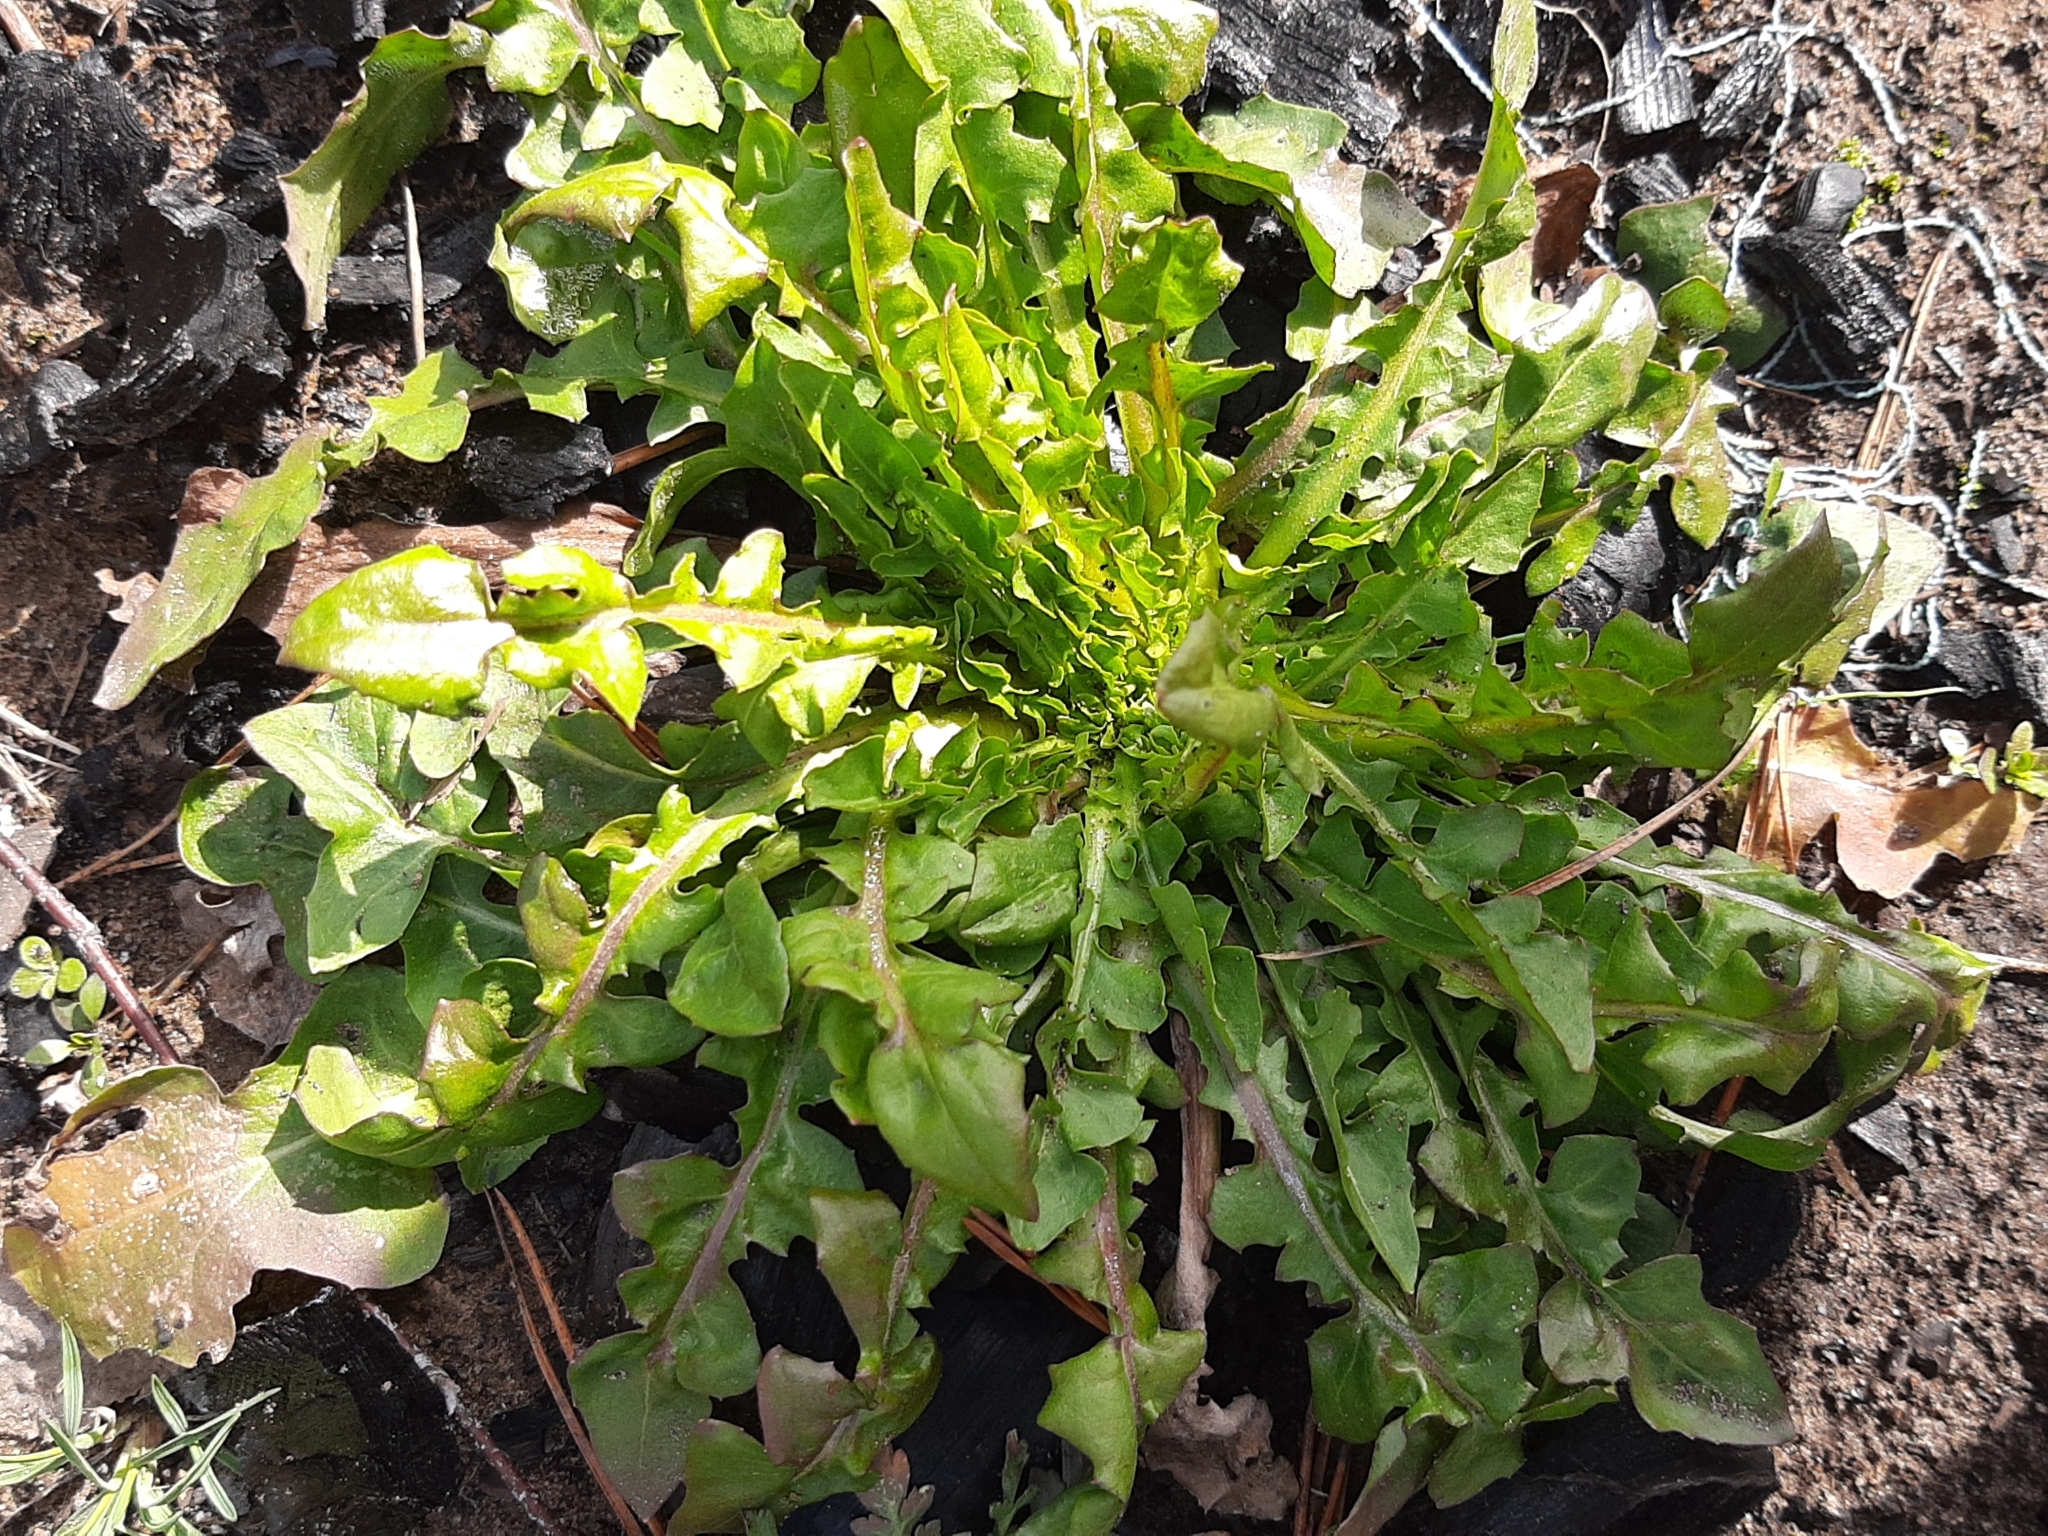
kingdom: Plantae
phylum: Tracheophyta
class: Magnoliopsida
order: Asterales
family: Asteraceae
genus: Taraxacum
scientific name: Taraxacum officinale
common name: Common dandelion
